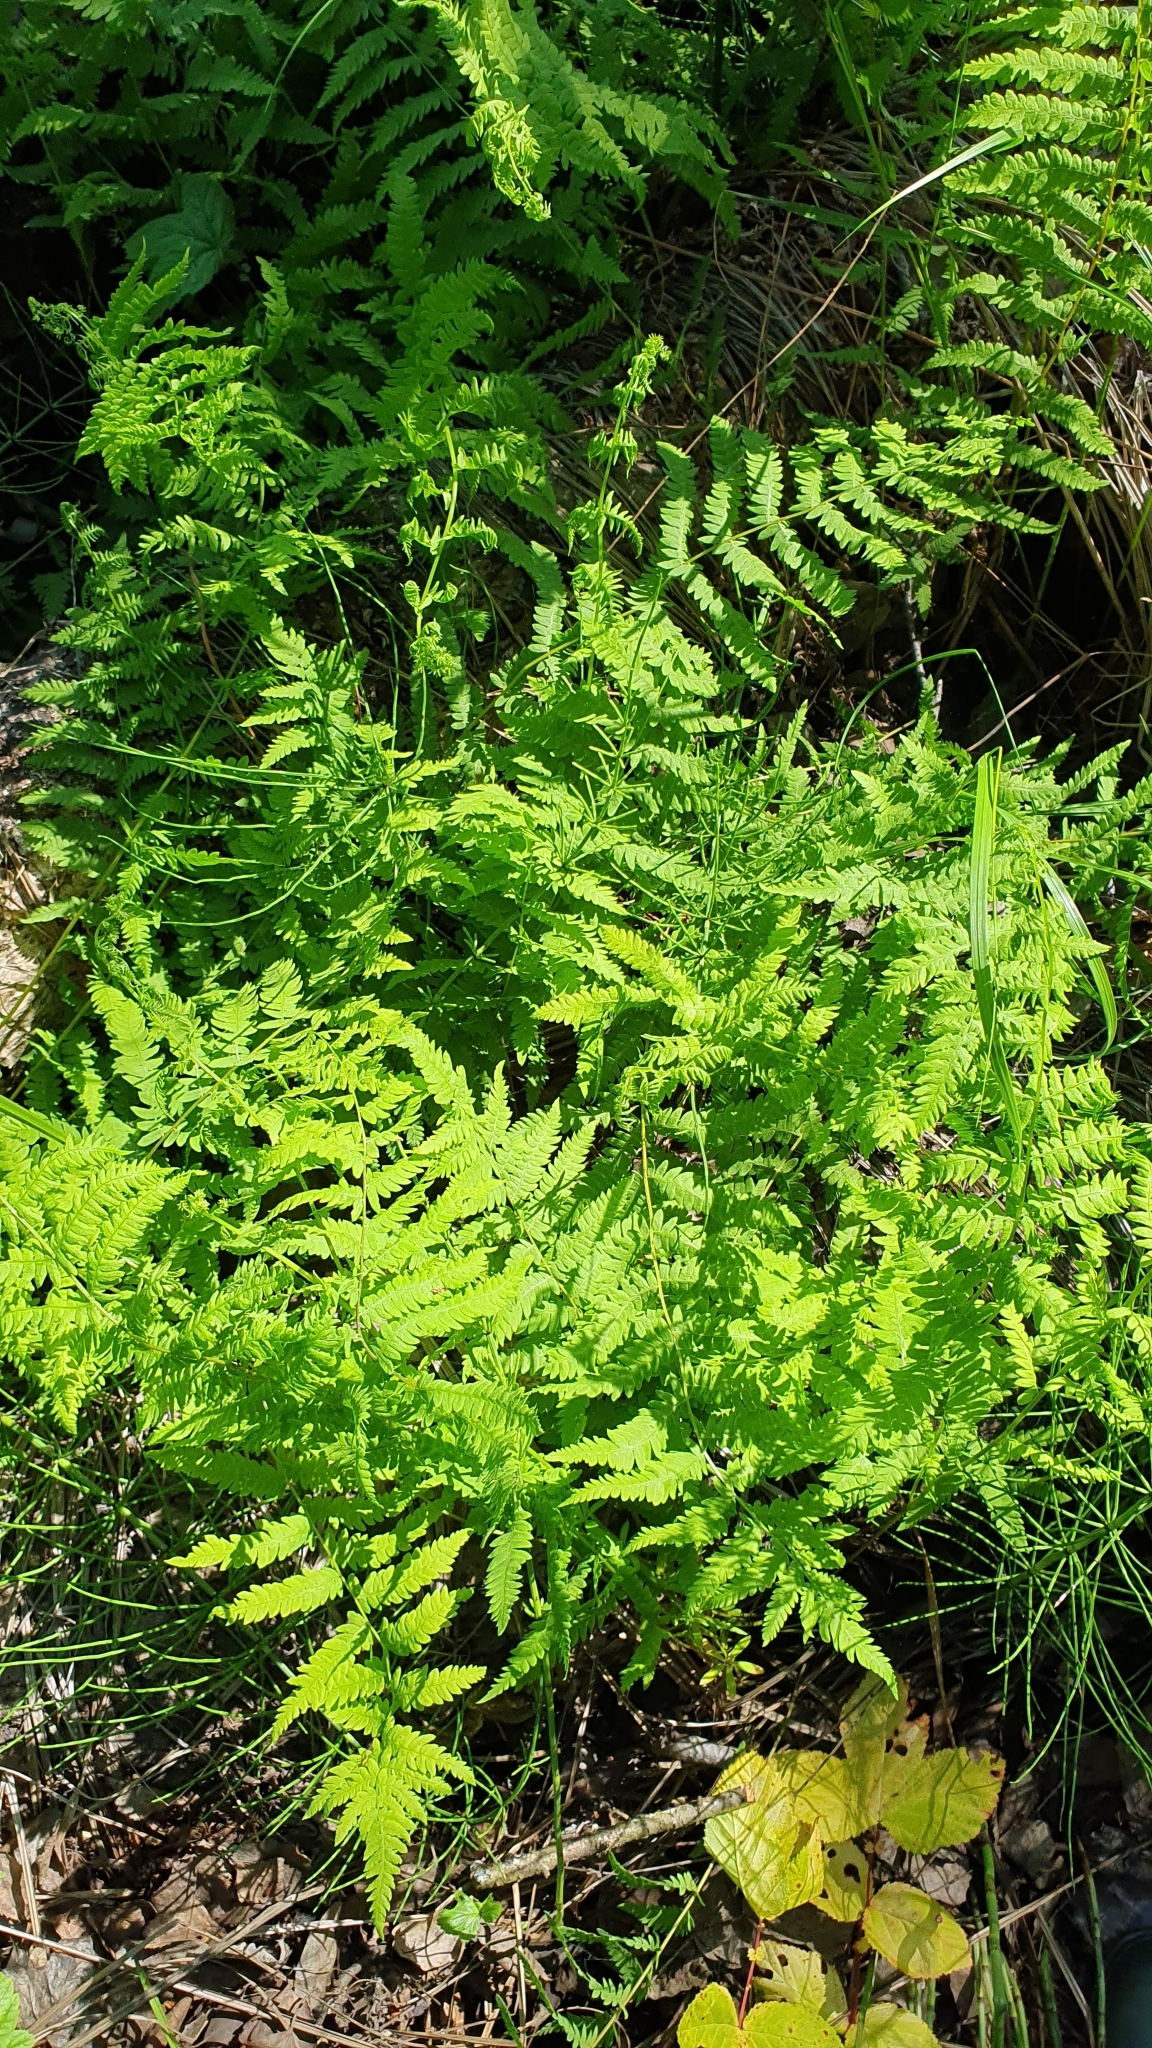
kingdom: Plantae
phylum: Tracheophyta
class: Polypodiopsida
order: Polypodiales
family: Thelypteridaceae
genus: Thelypteris
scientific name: Thelypteris palustris
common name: Marsh fern
